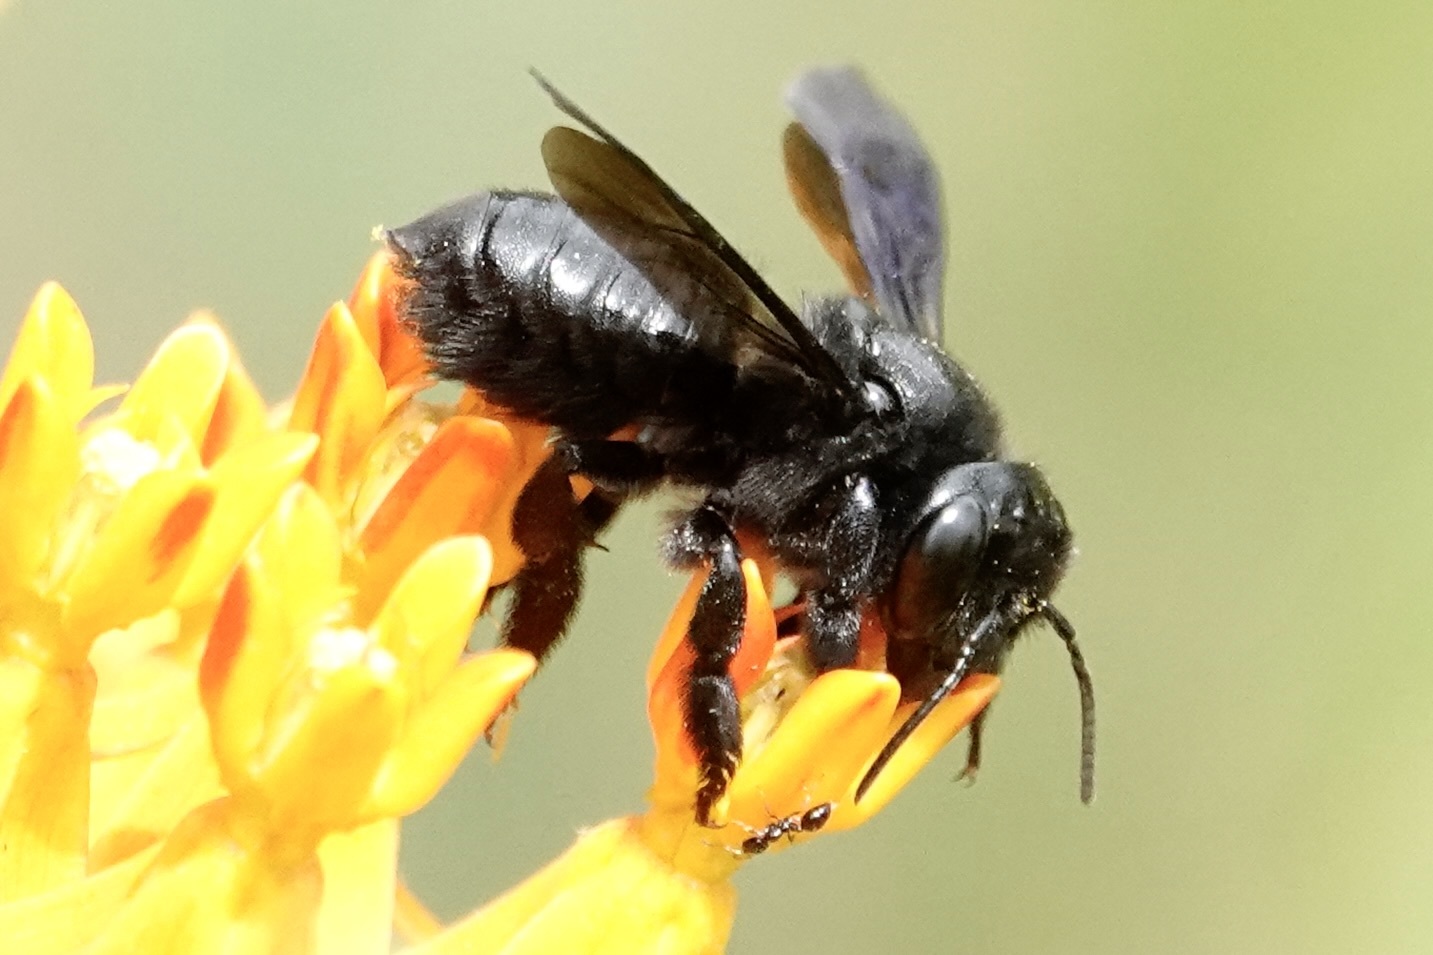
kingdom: Animalia
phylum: Arthropoda
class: Insecta
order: Hymenoptera
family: Megachilidae
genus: Megachile
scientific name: Megachile xylocopoides
